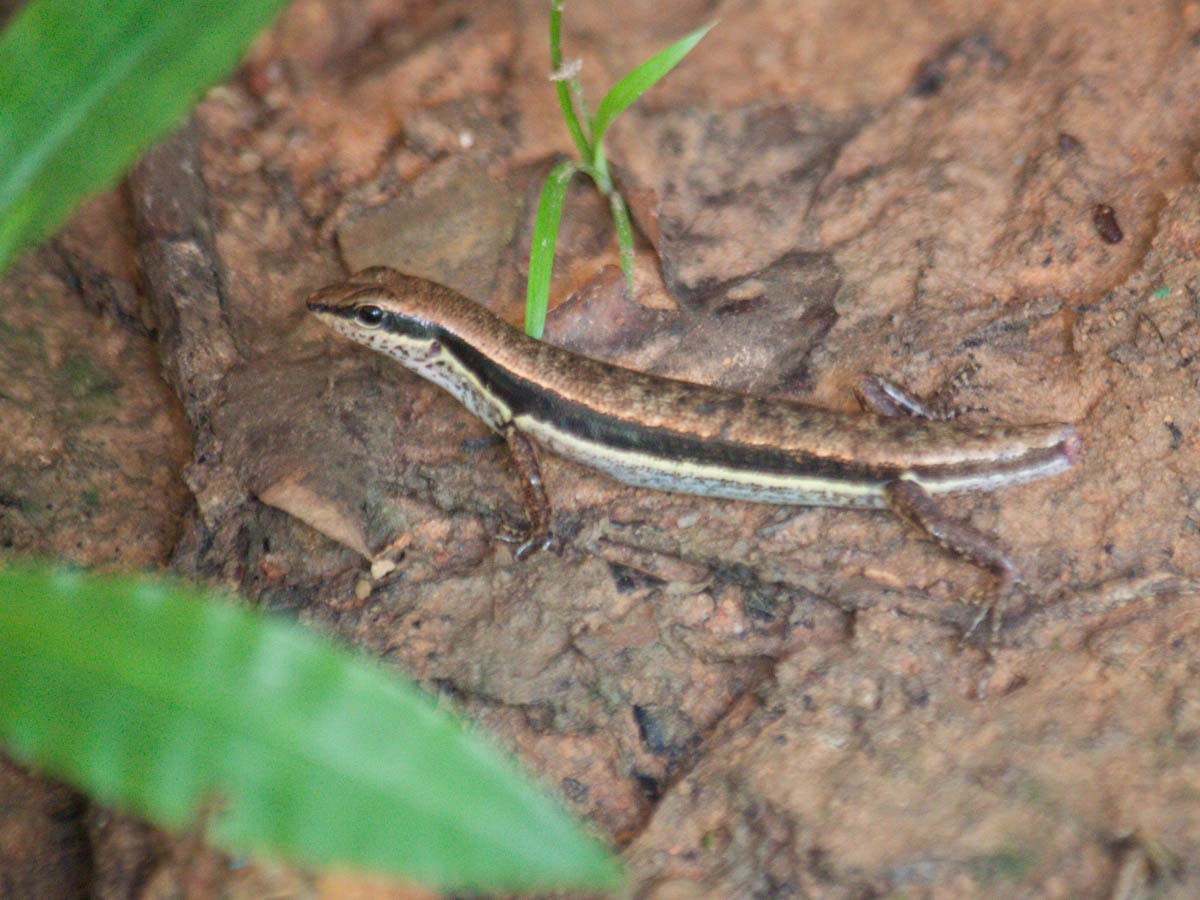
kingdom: Animalia
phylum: Chordata
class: Squamata
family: Scincidae
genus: Sphenomorphus
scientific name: Sphenomorphus maculatus
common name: Maculated forest skink
